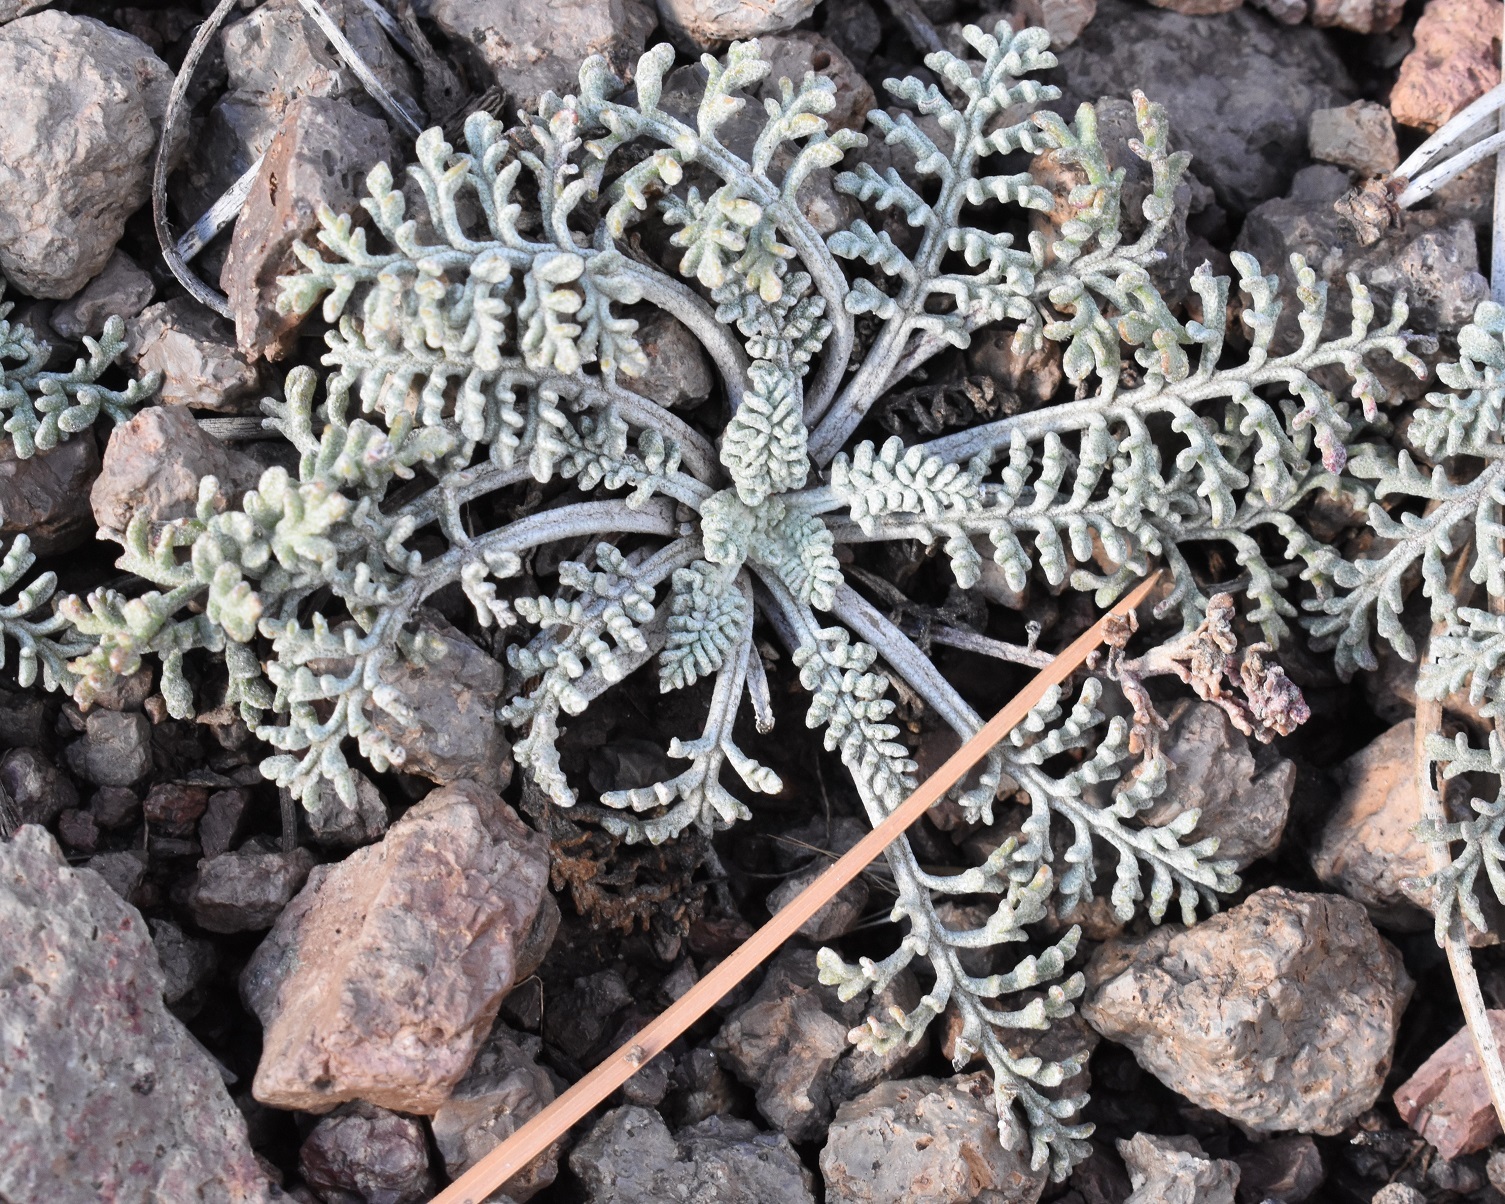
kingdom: Plantae
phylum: Tracheophyta
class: Magnoliopsida
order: Asterales
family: Asteraceae
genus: Chaenactis
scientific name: Chaenactis douglasii
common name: Hoary pincushion
